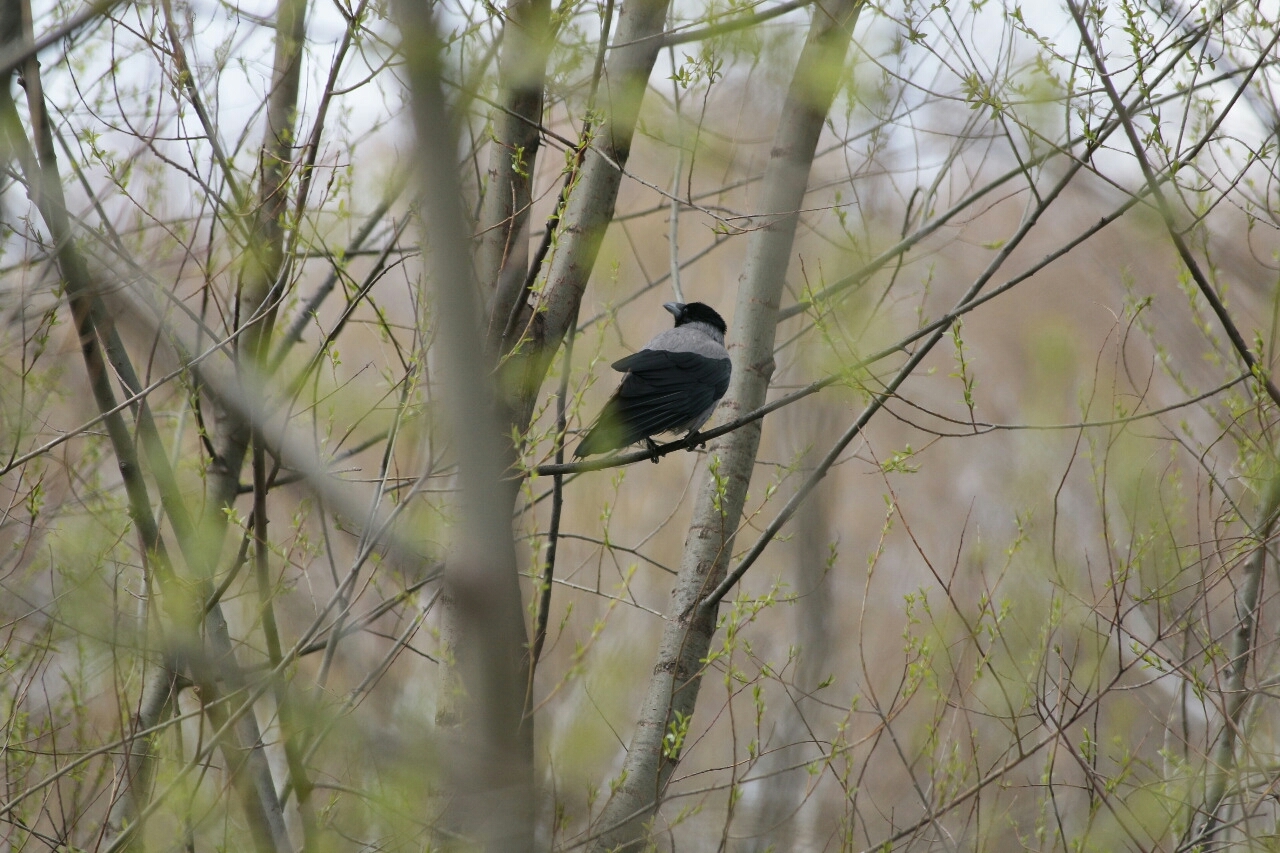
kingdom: Animalia
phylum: Chordata
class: Aves
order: Passeriformes
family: Corvidae
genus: Corvus
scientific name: Corvus cornix
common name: Hooded crow
